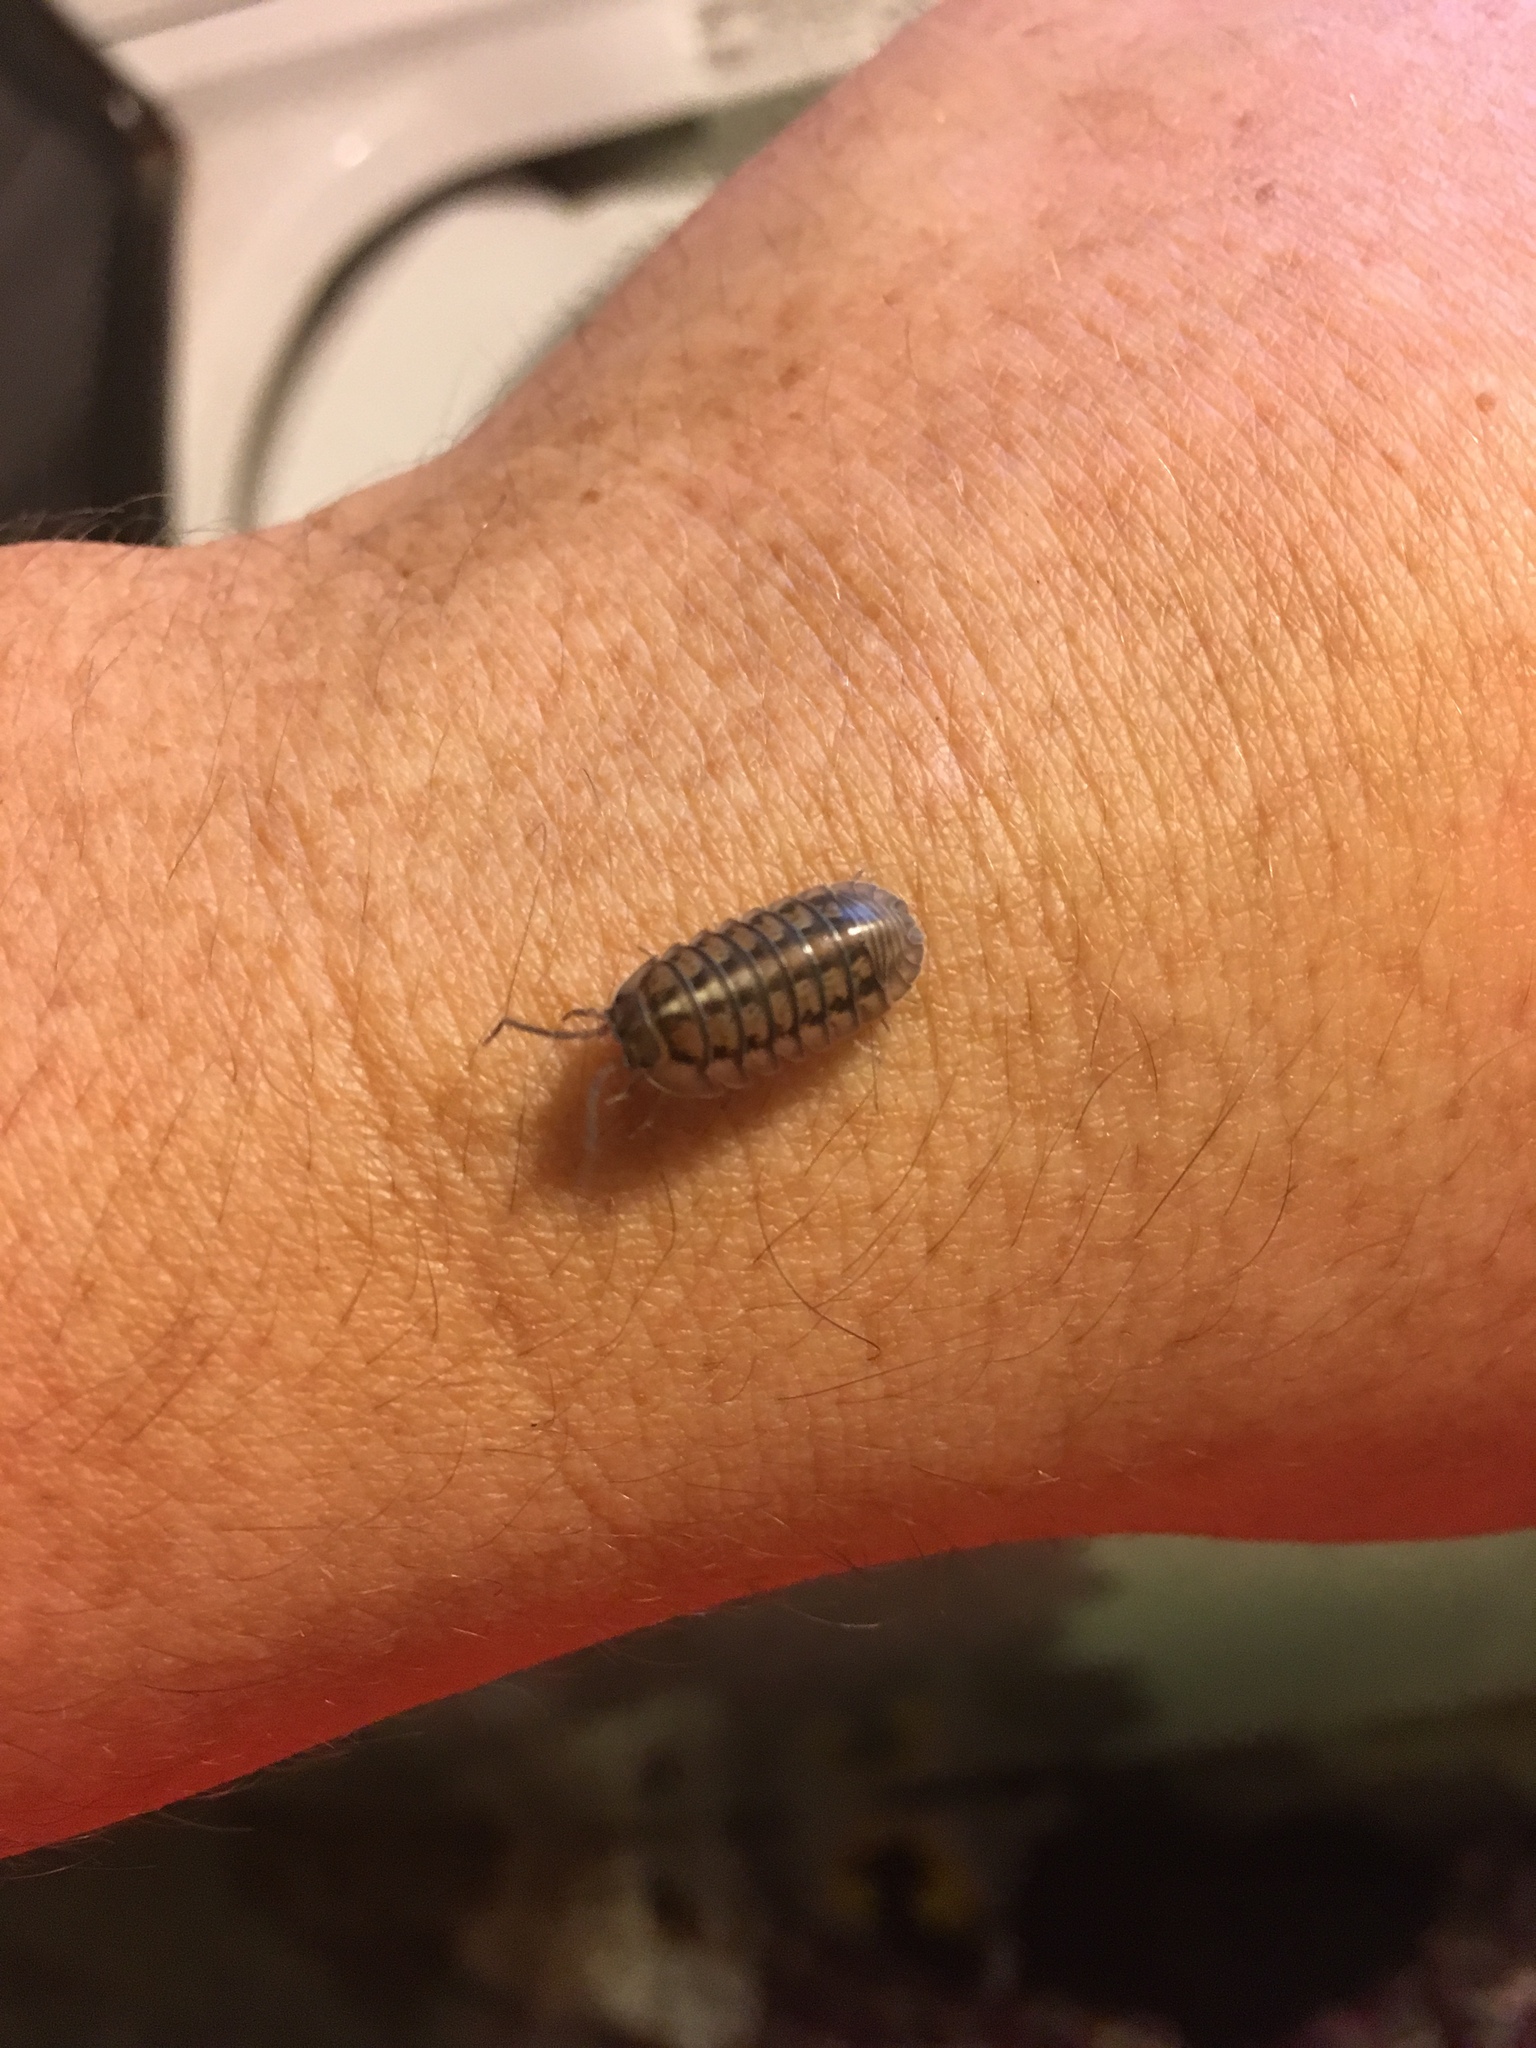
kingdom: Animalia
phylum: Arthropoda
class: Malacostraca
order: Isopoda
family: Armadillidiidae
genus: Armadillidium
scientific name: Armadillidium nasatum
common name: Isopod
